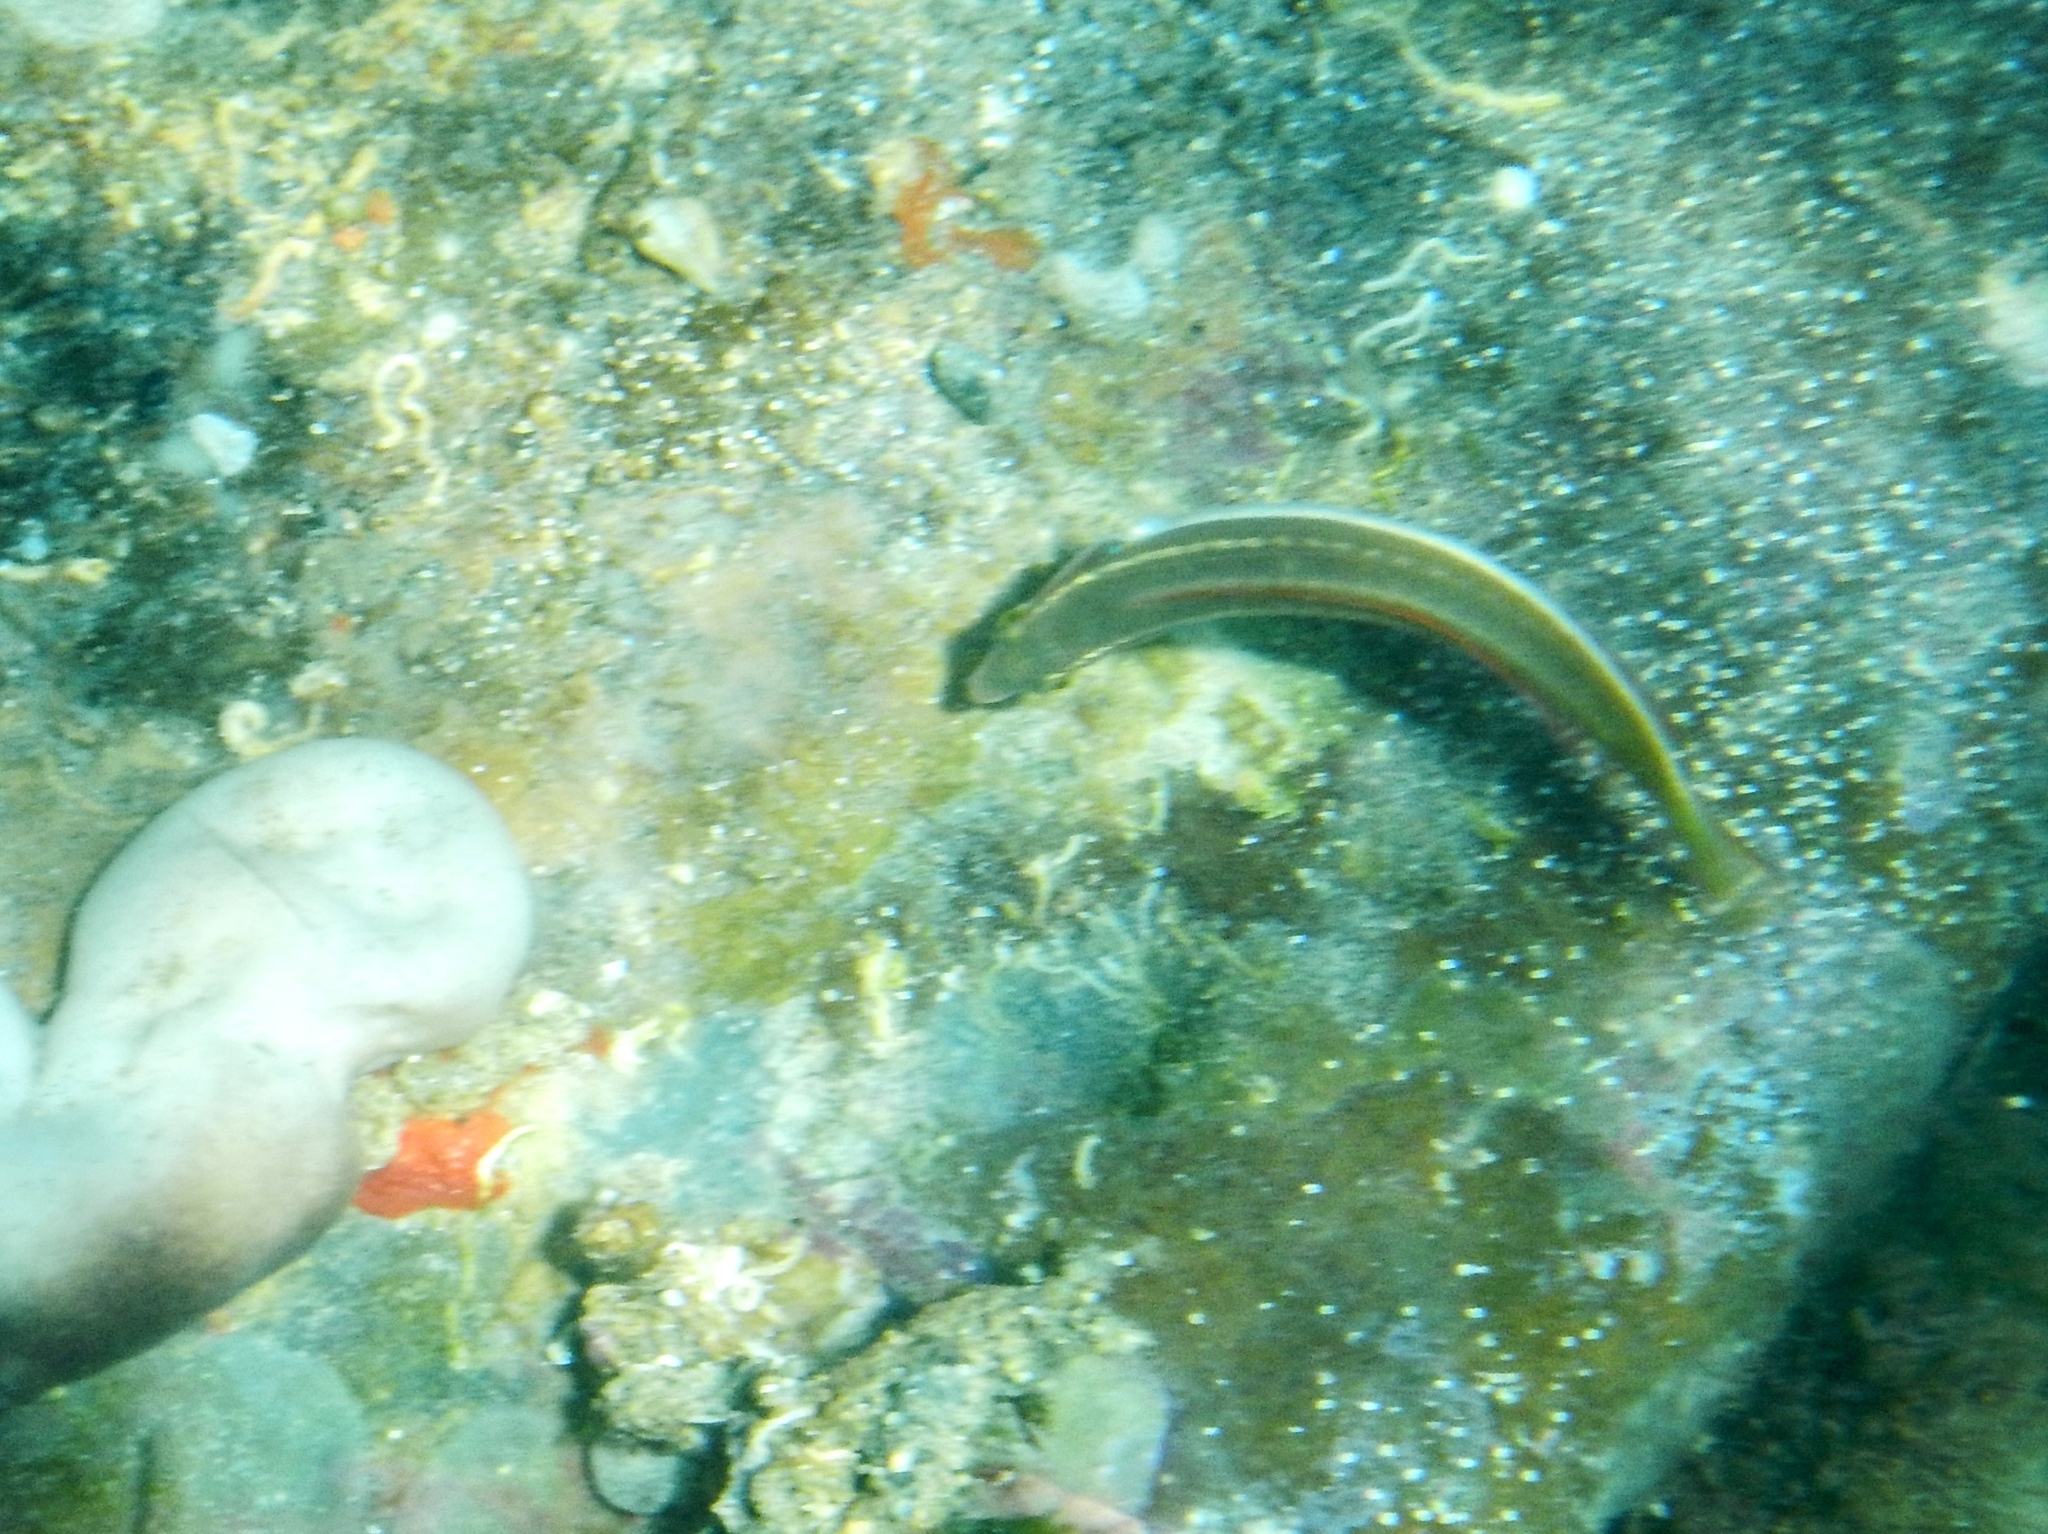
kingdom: Animalia
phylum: Chordata
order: Perciformes
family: Labridae
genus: Coris
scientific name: Coris julis
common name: Rainbow wrasse
